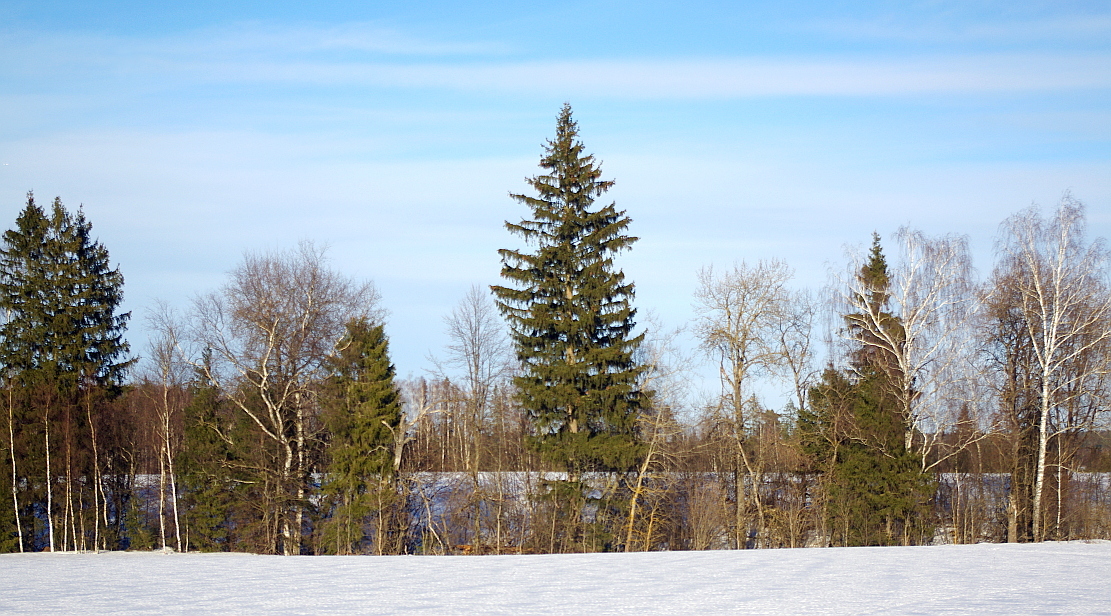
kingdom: Plantae
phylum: Tracheophyta
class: Pinopsida
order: Pinales
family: Pinaceae
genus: Picea
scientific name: Picea abies
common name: Norway spruce
